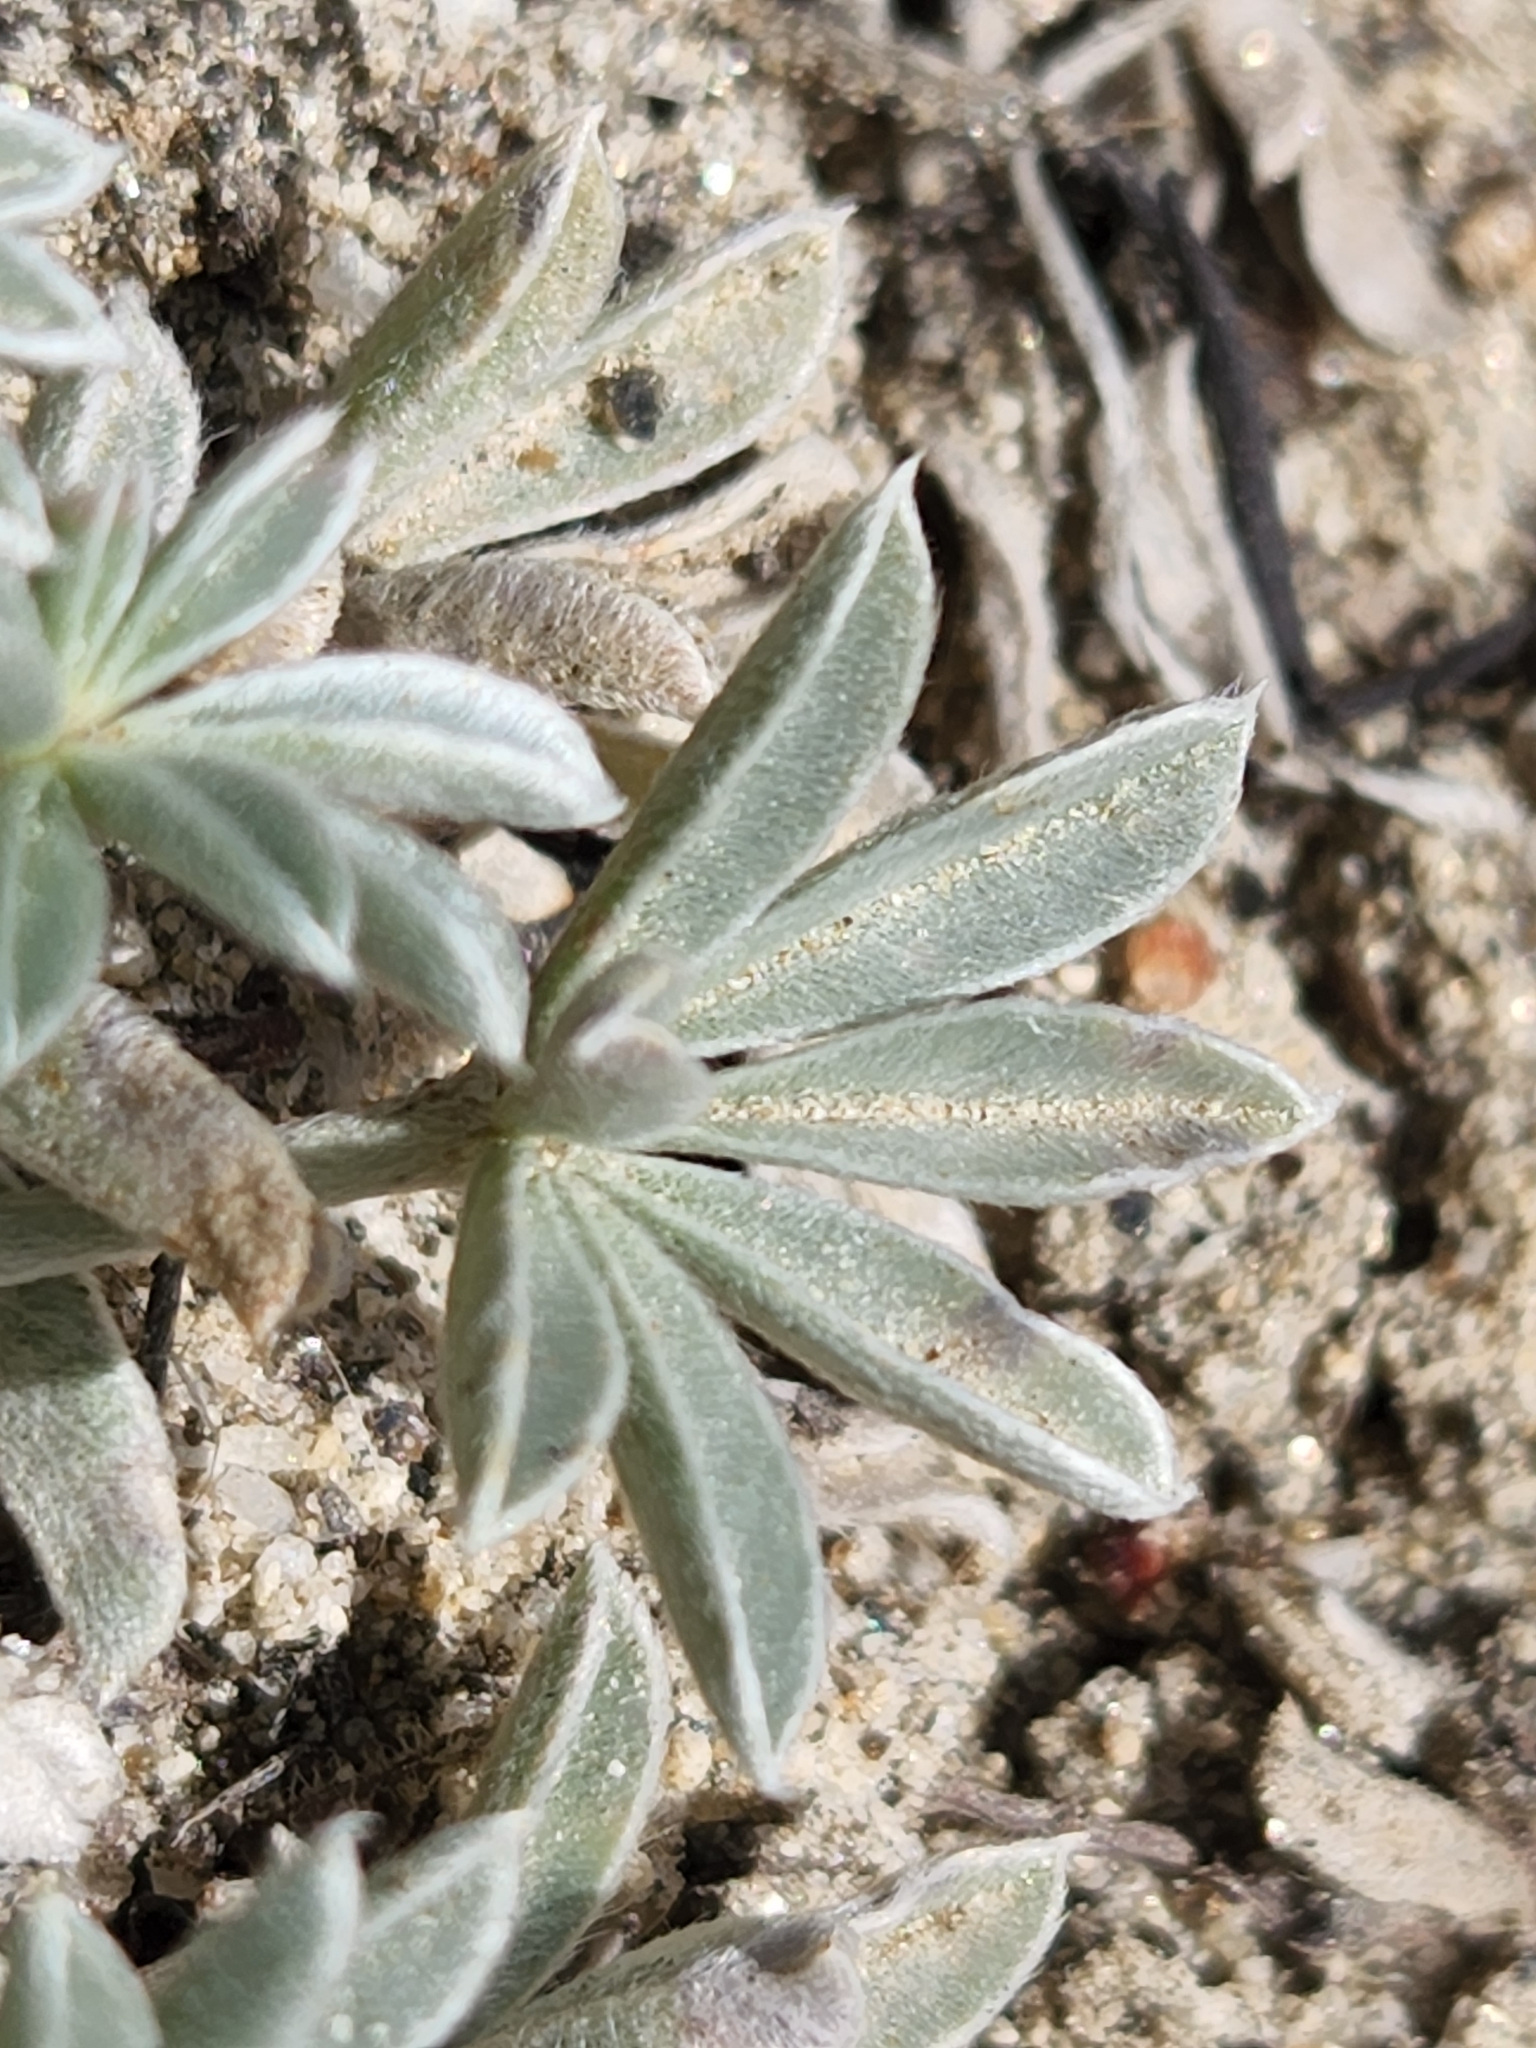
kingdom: Plantae
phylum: Tracheophyta
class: Magnoliopsida
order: Fabales
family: Fabaceae
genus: Lupinus
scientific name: Lupinus excubitus
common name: Grape soda lupine
